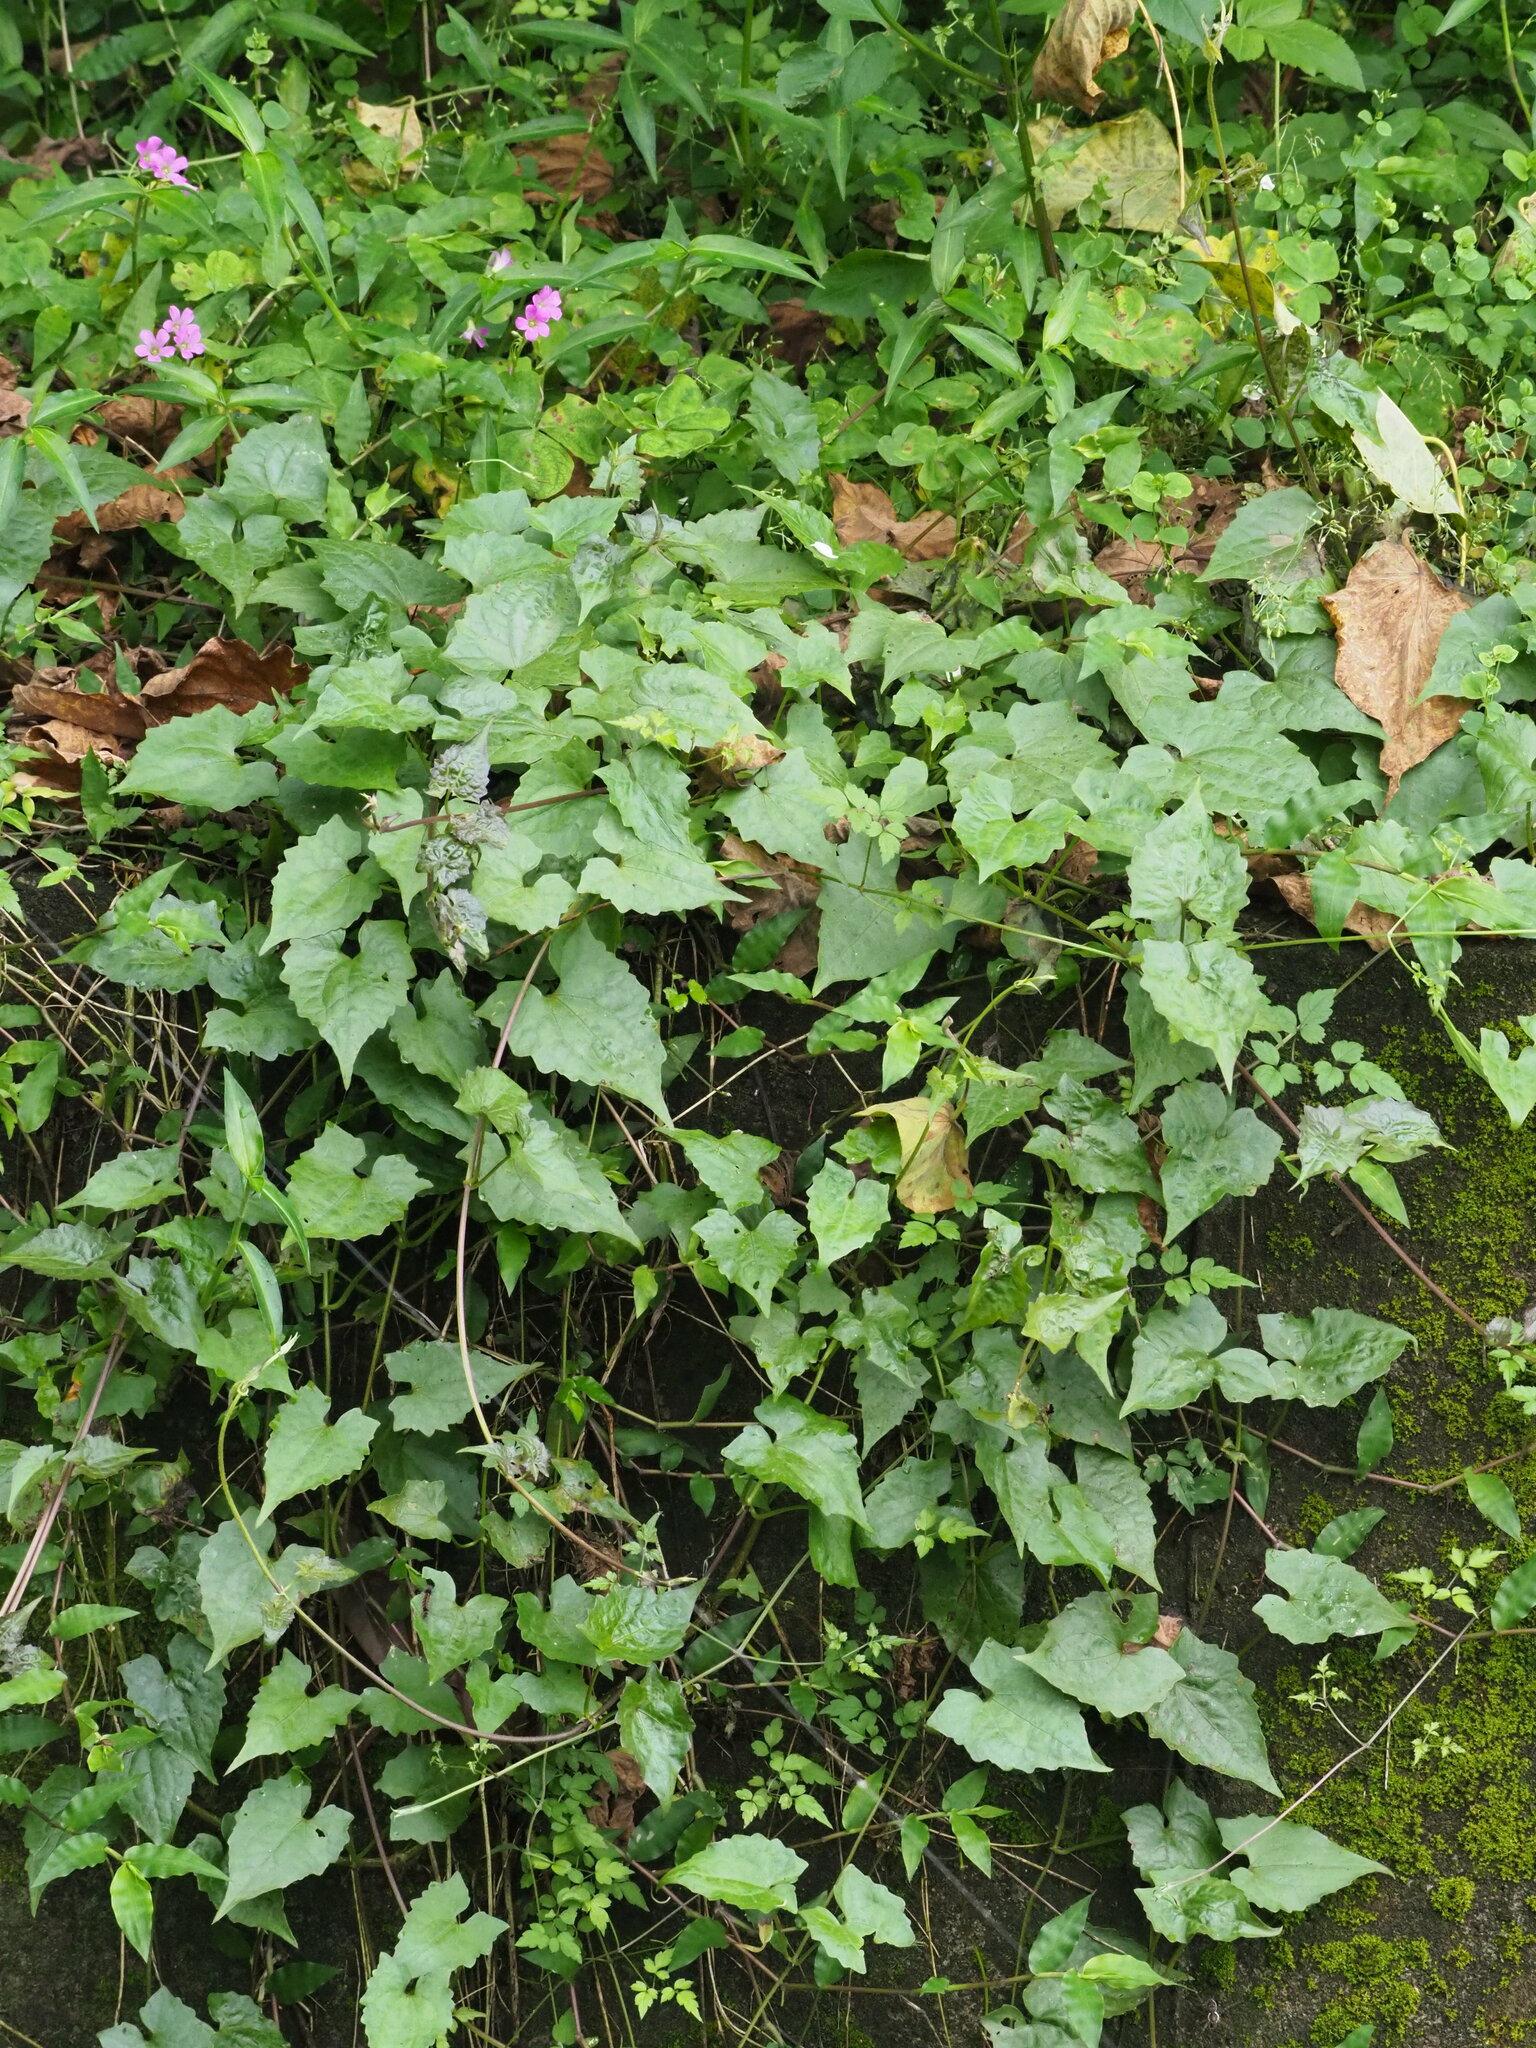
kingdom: Plantae
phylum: Tracheophyta
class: Magnoliopsida
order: Asterales
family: Asteraceae
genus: Mikania
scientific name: Mikania micrantha
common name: Mile-a-minute
